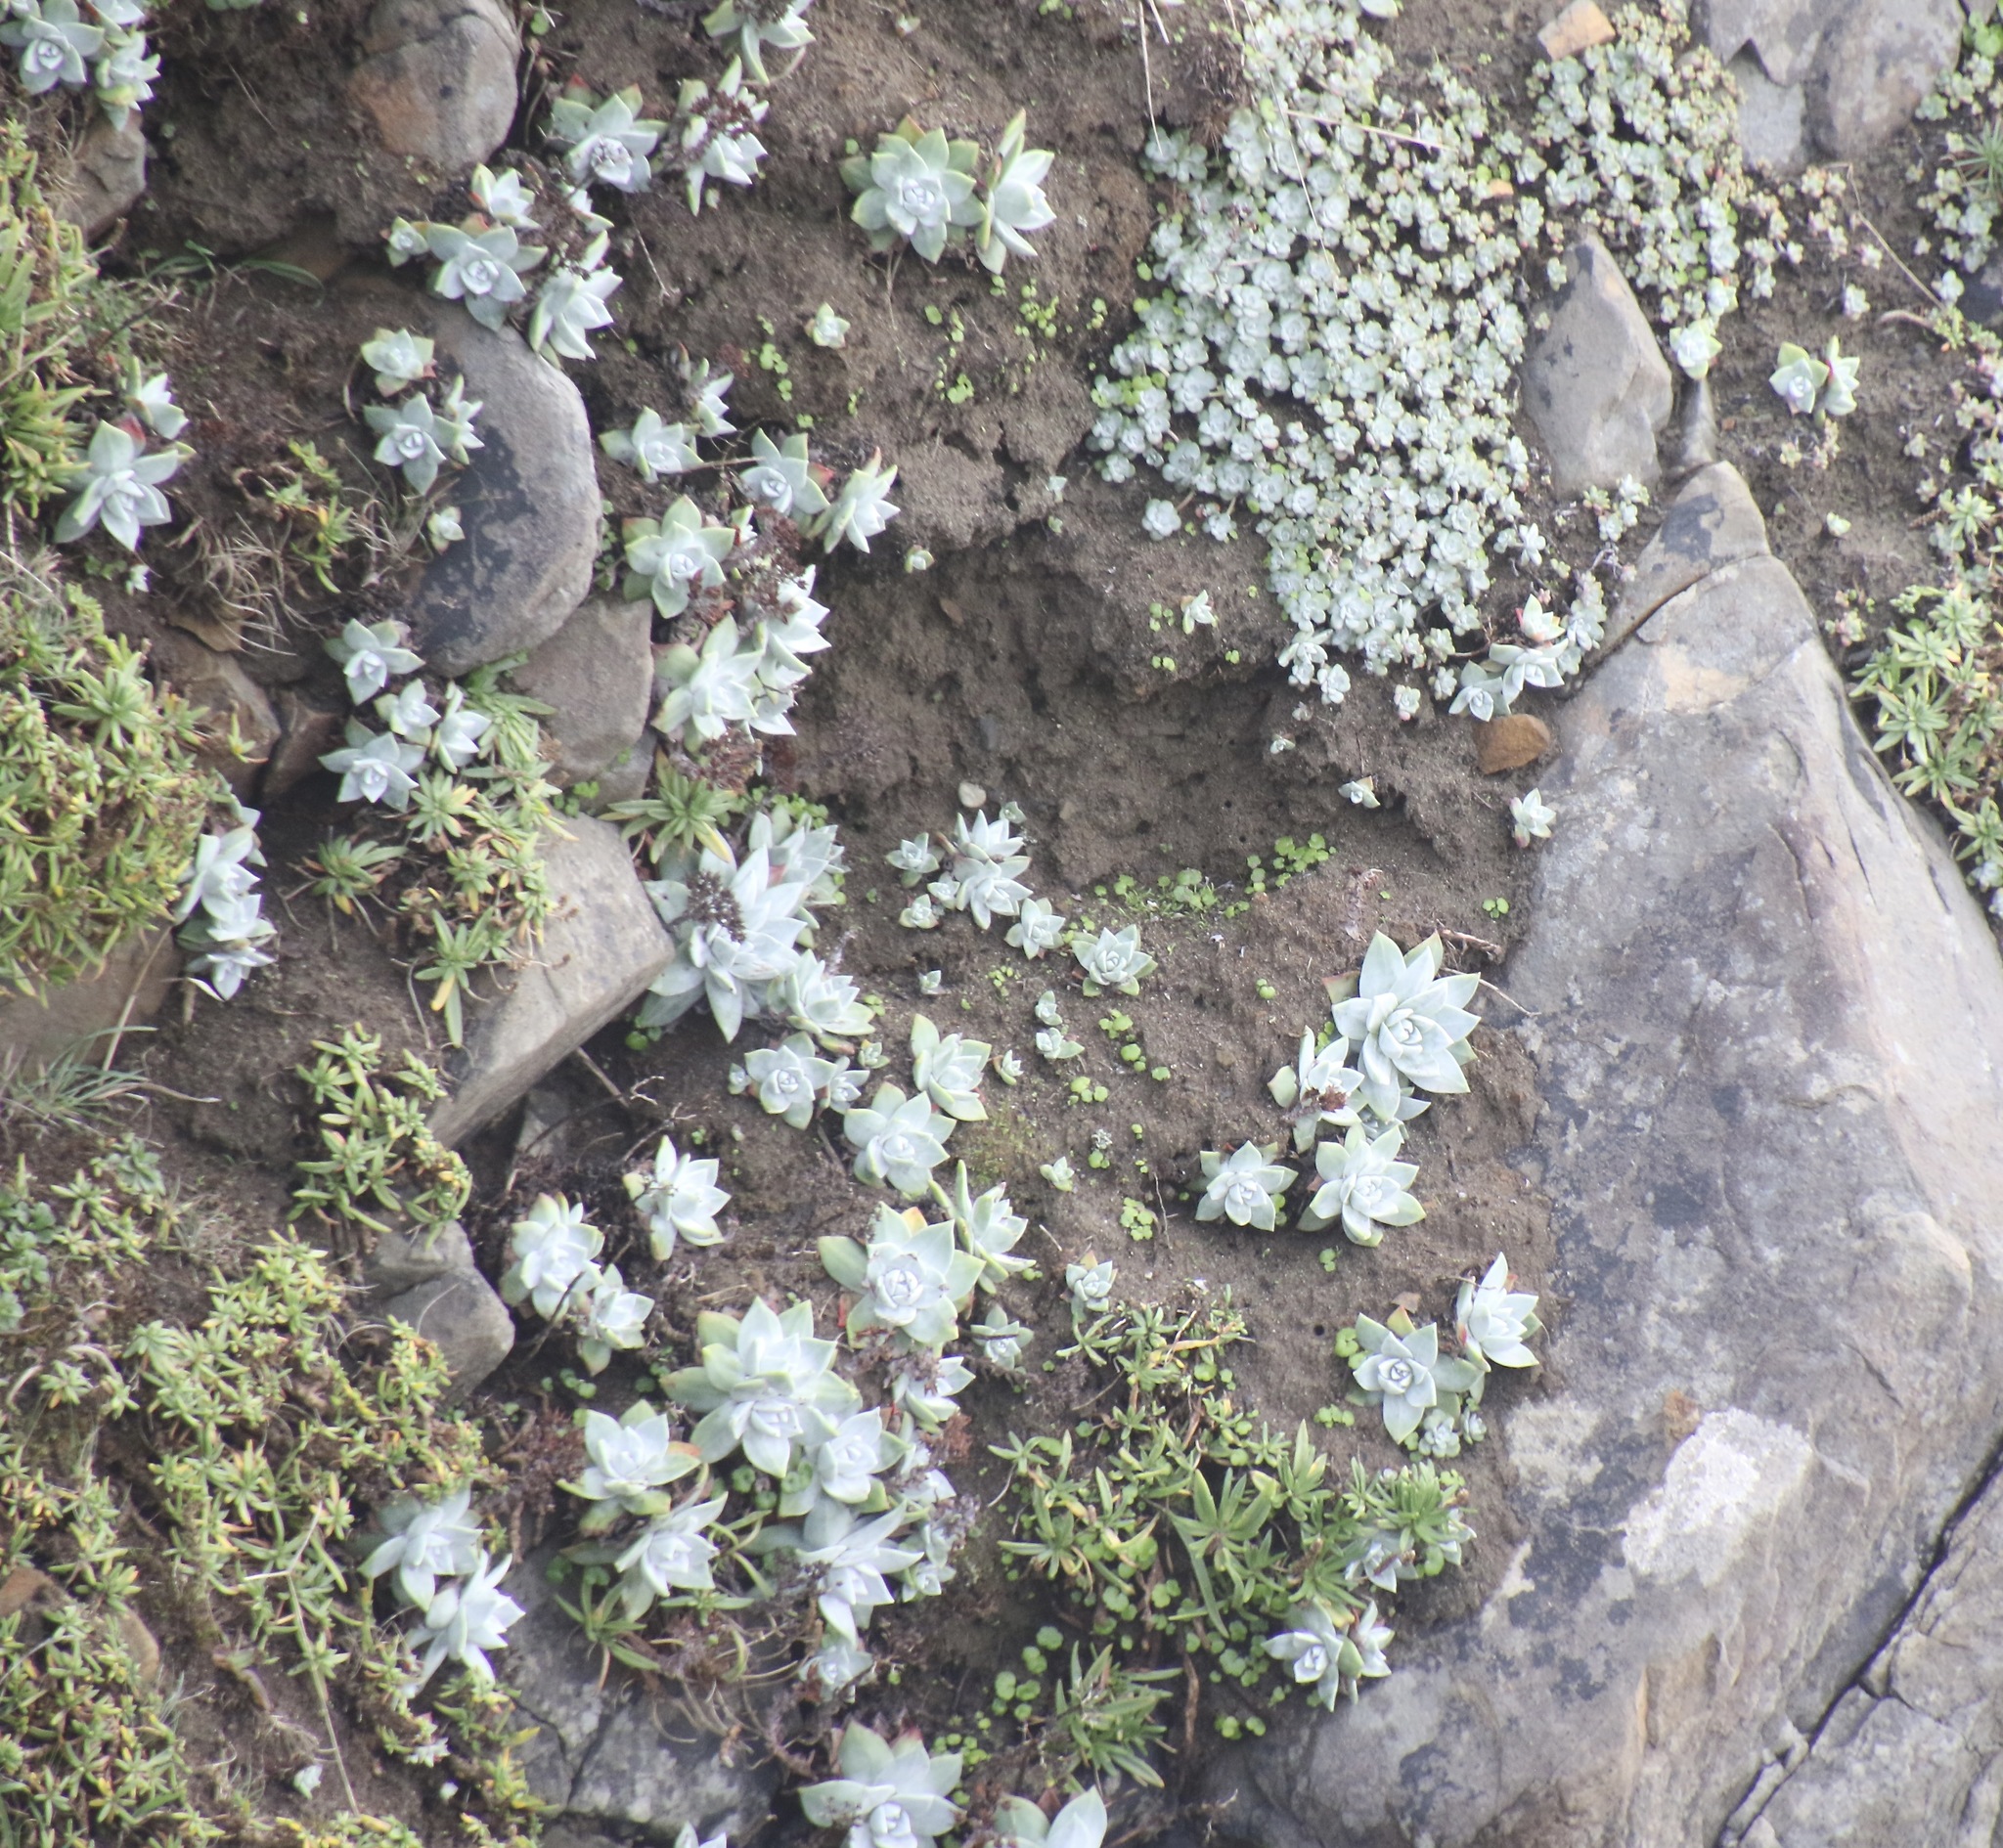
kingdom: Plantae
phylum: Tracheophyta
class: Magnoliopsida
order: Saxifragales
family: Crassulaceae
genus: Dudleya
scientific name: Dudleya farinosa
